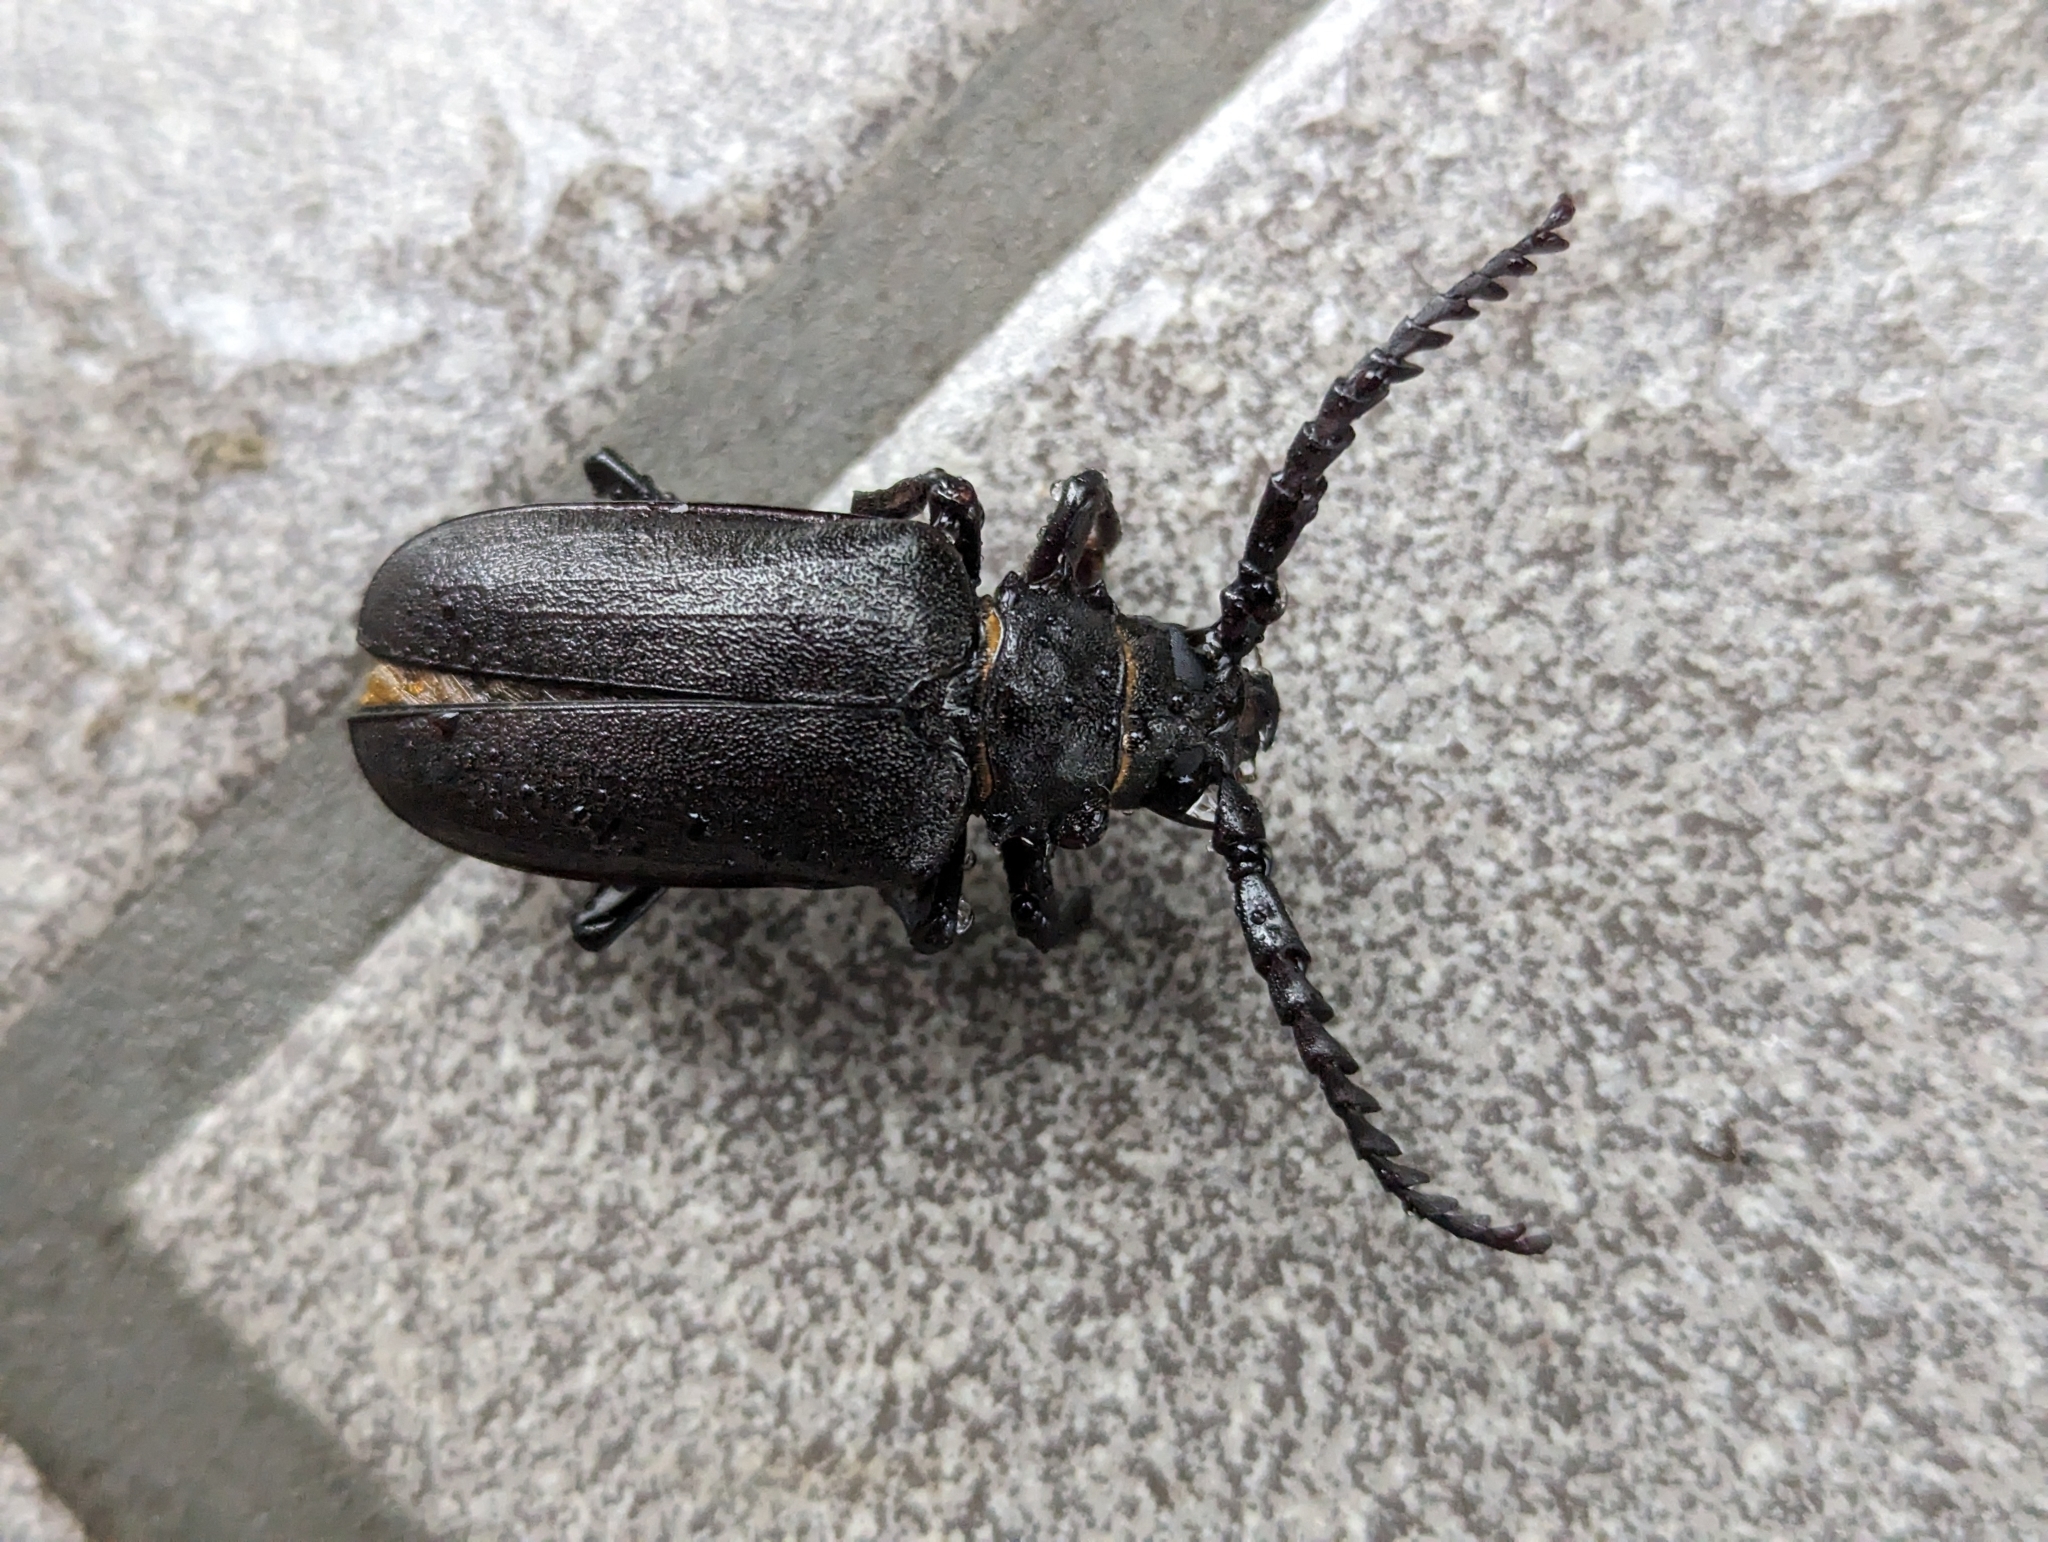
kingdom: Animalia
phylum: Arthropoda
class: Insecta
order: Coleoptera
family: Cerambycidae
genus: Prionus
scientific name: Prionus coriarius
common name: Tanner beetle
